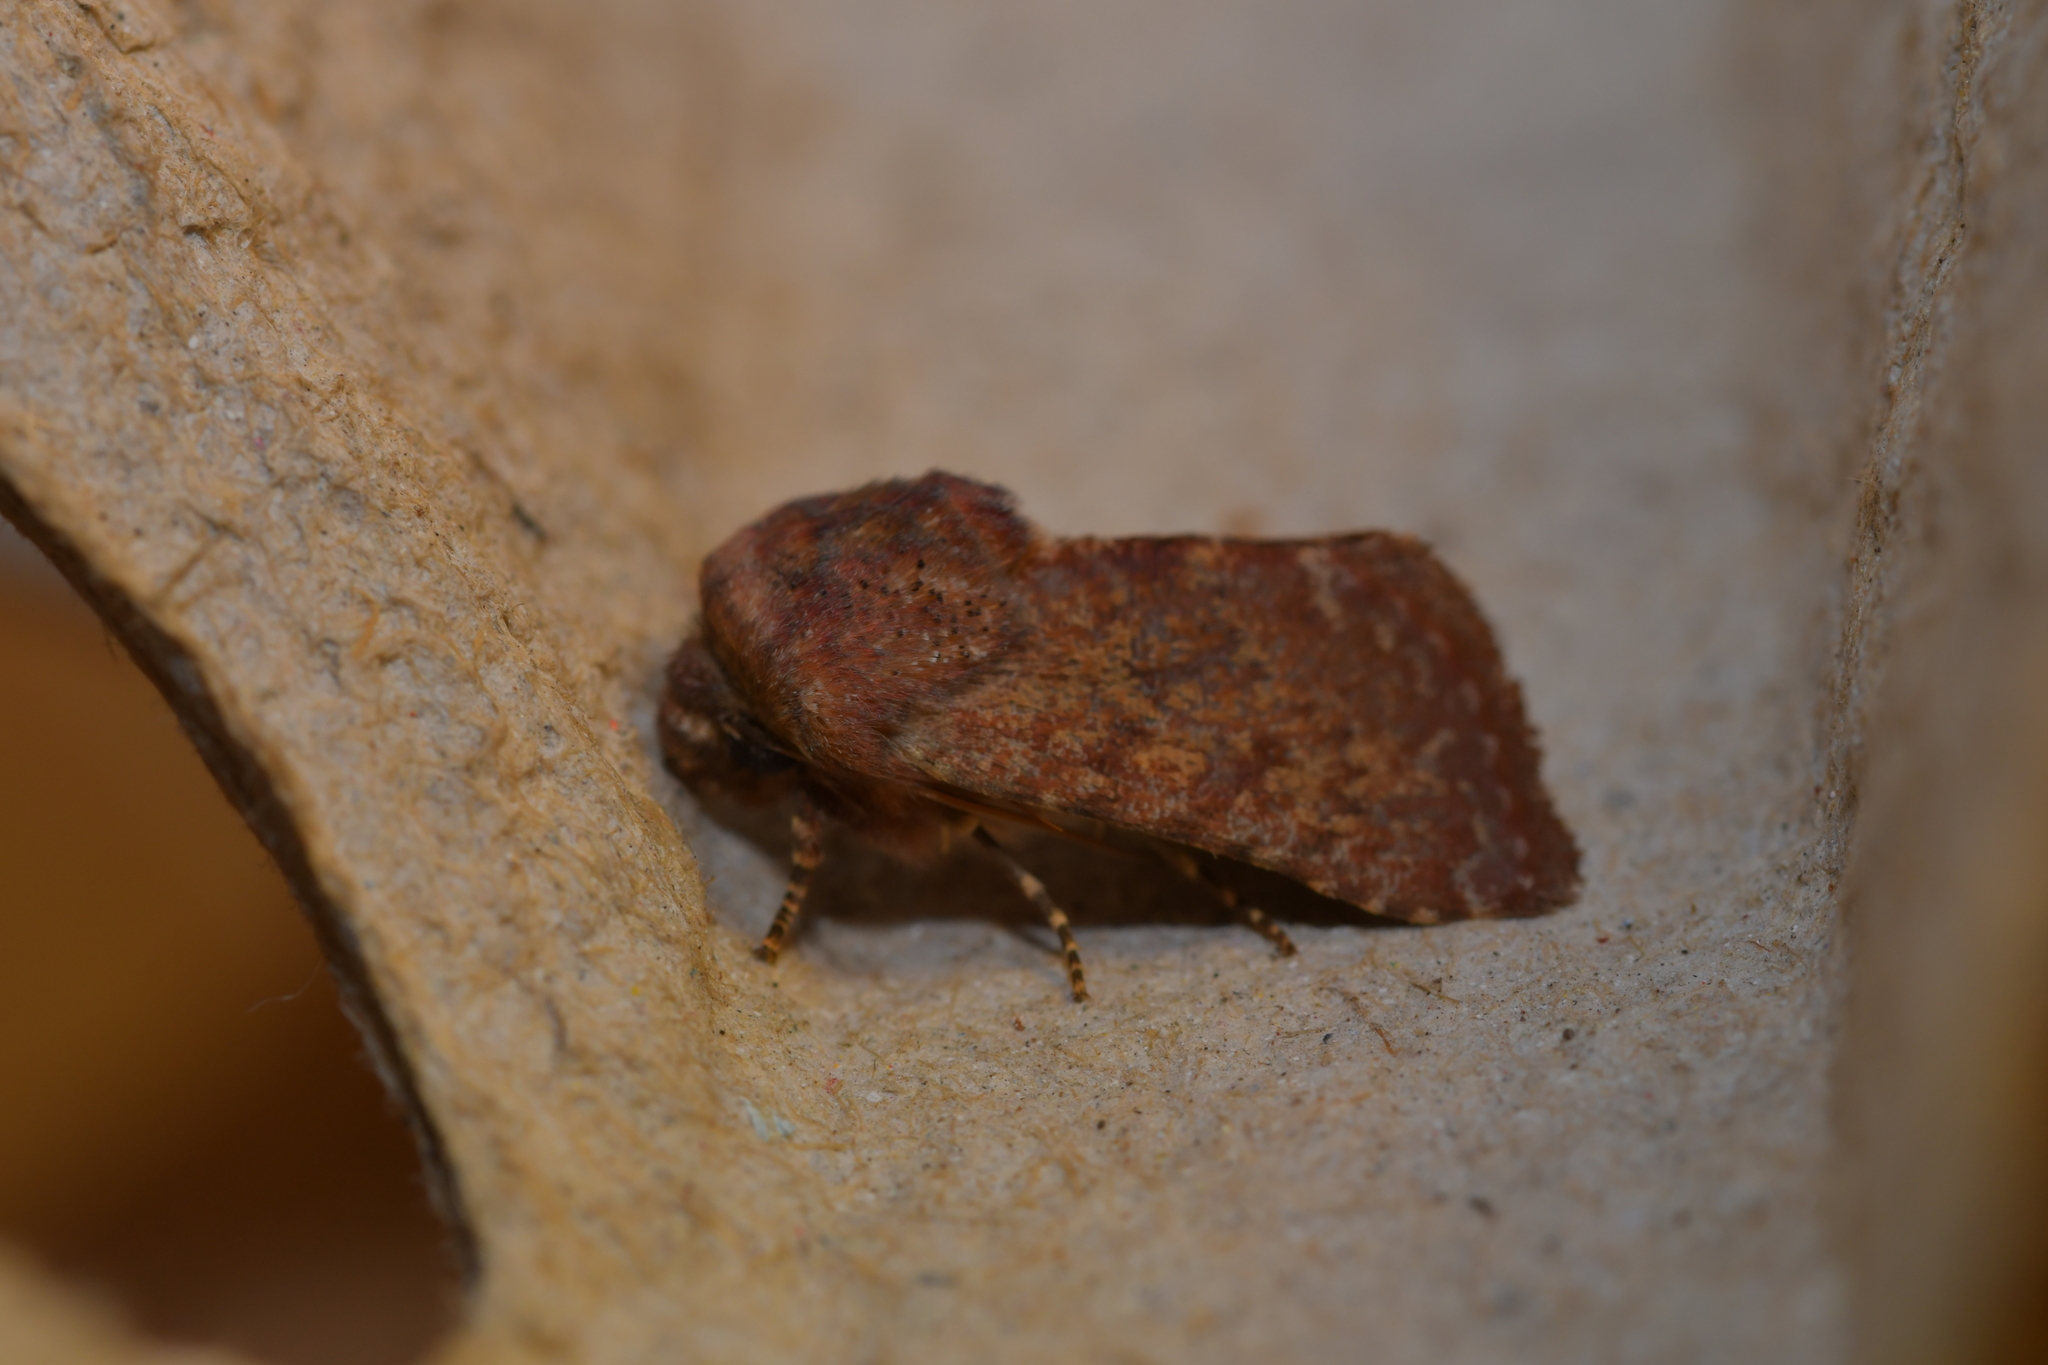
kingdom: Animalia
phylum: Arthropoda
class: Insecta
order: Lepidoptera
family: Noctuidae
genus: Metopoceras
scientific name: Metopoceras felicina
